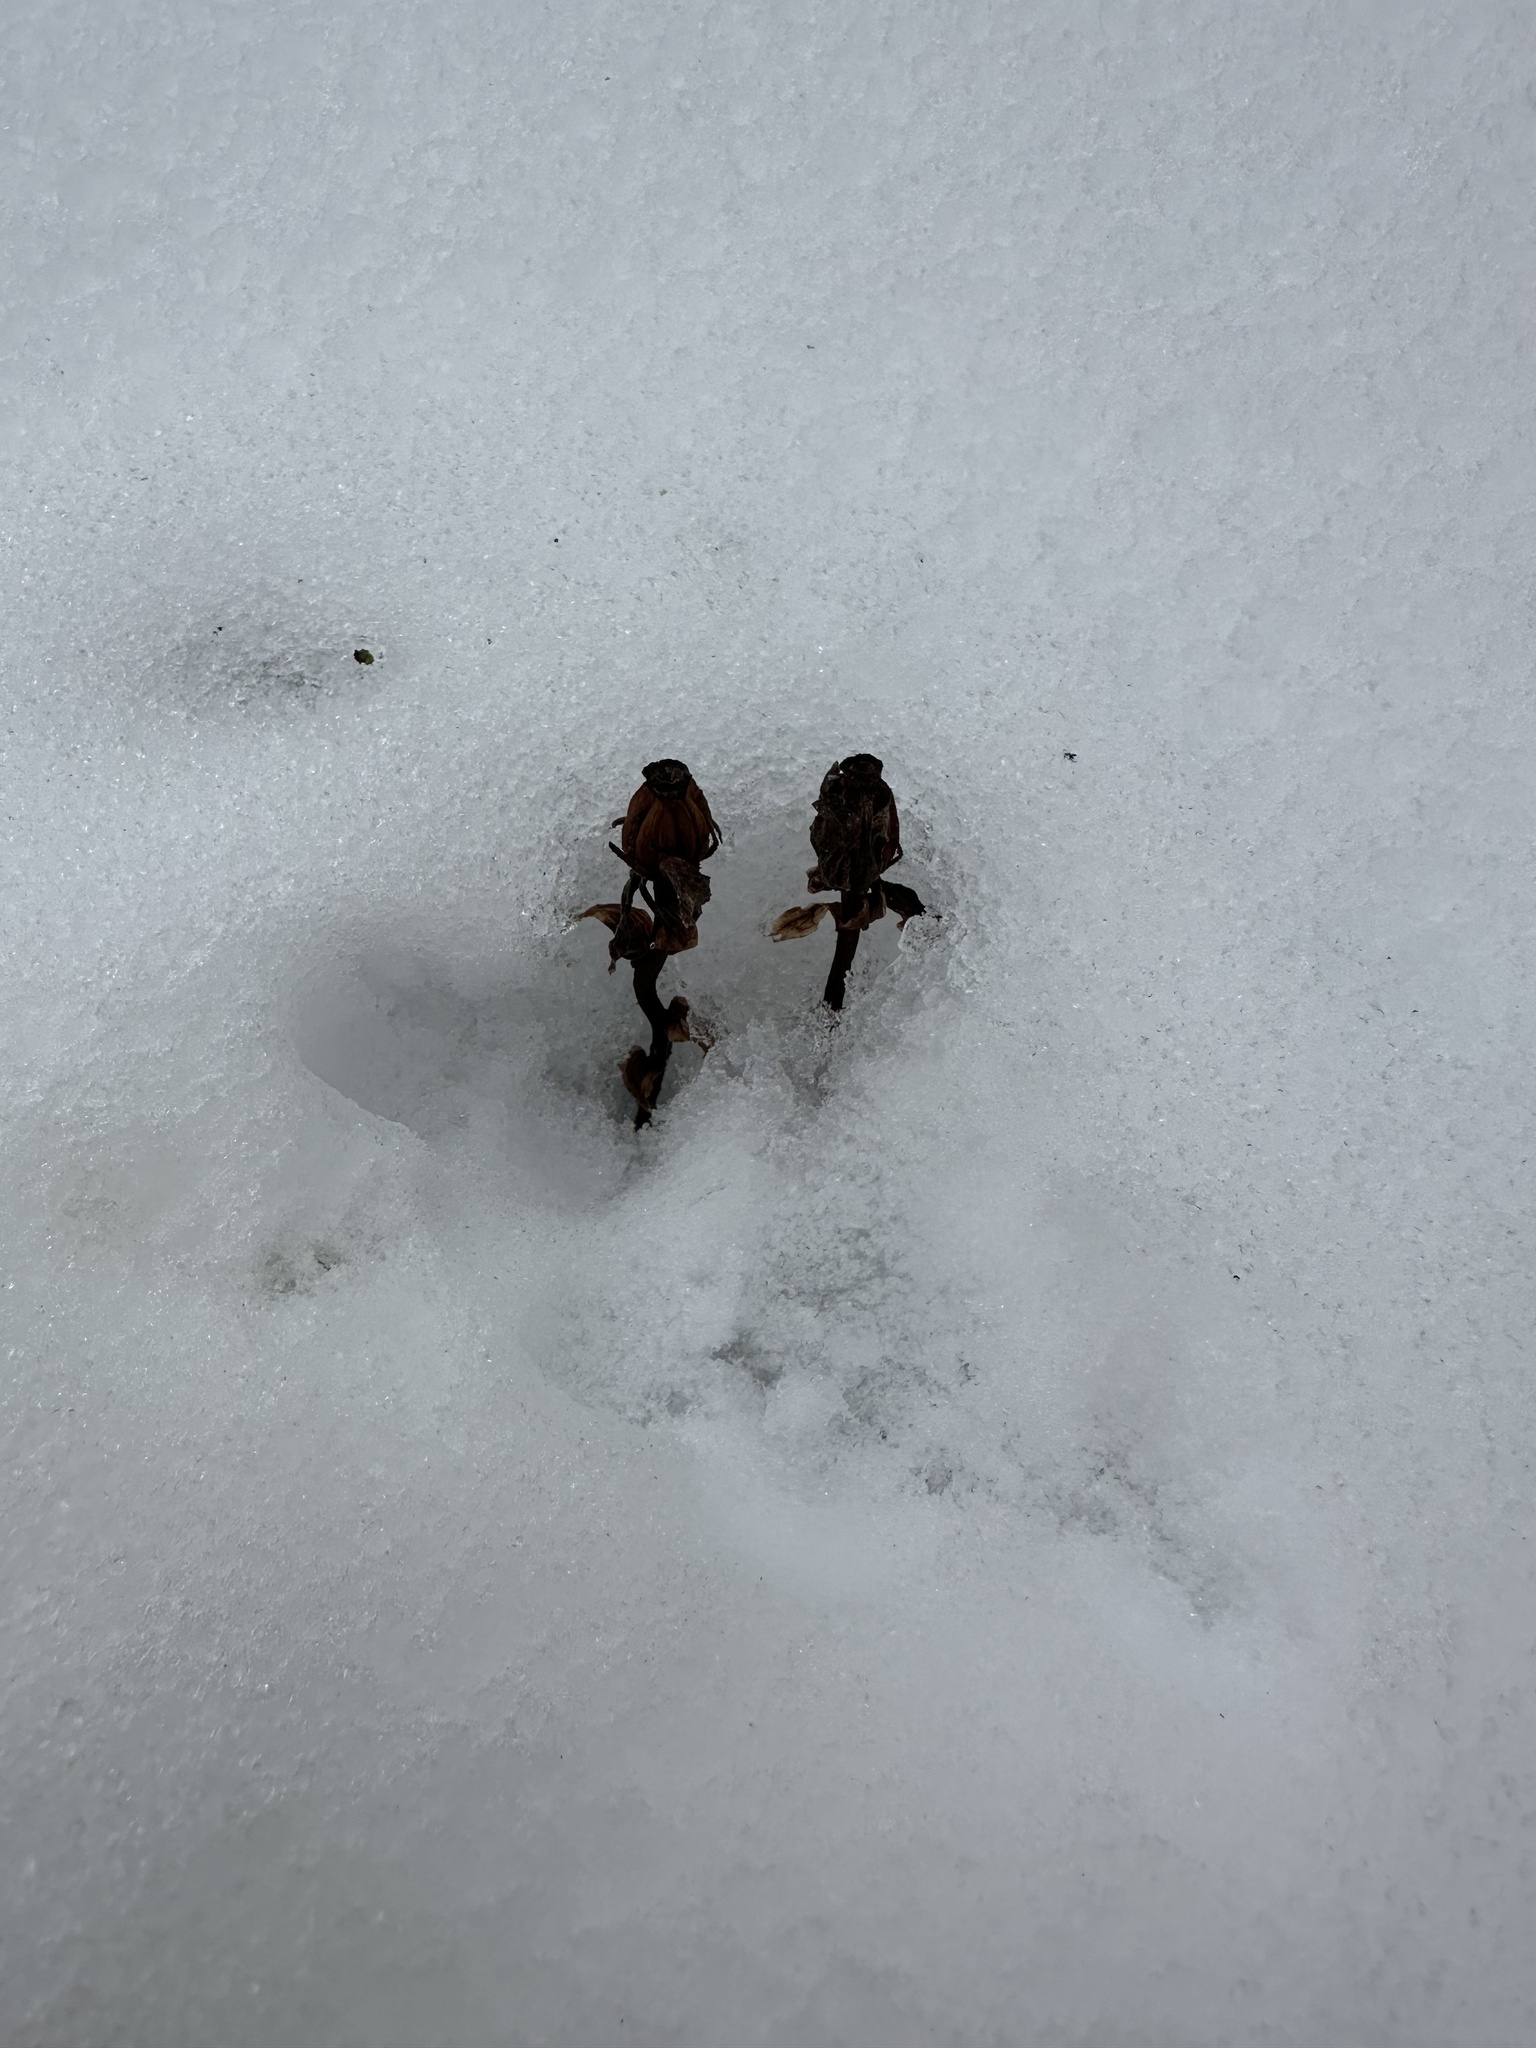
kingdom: Plantae
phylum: Tracheophyta
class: Magnoliopsida
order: Ericales
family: Ericaceae
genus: Monotropa
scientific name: Monotropa uniflora
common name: Convulsion root
